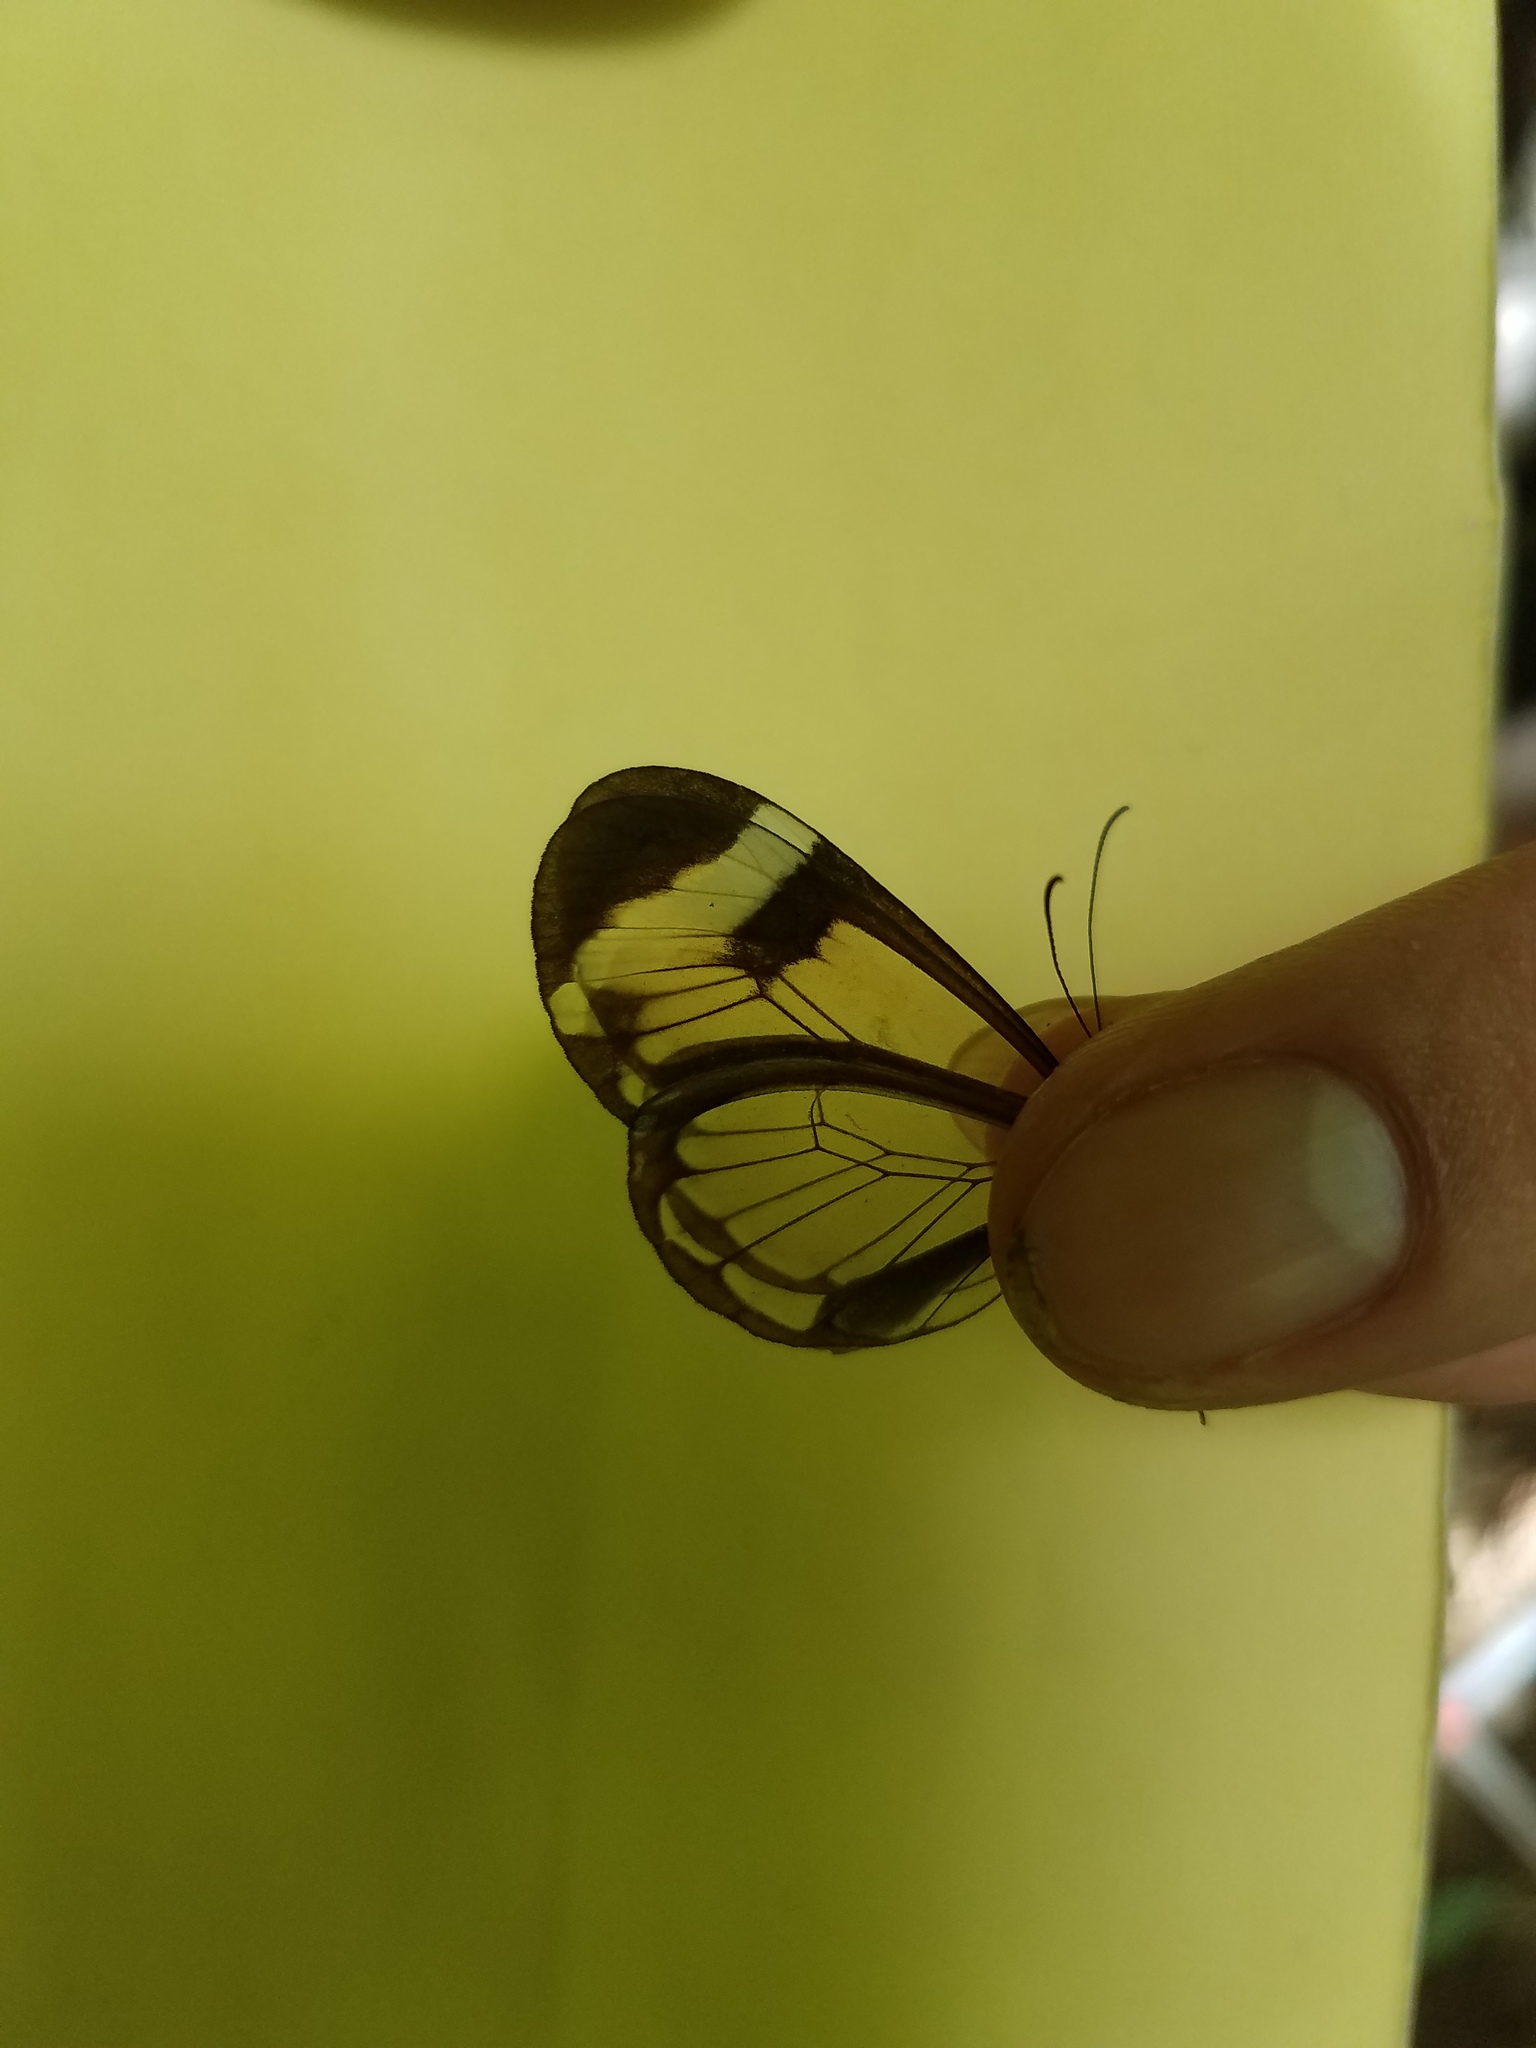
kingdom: Animalia
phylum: Arthropoda
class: Insecta
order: Lepidoptera
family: Nymphalidae
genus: Greta
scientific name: Greta morgane
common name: Thick-tipped greta
